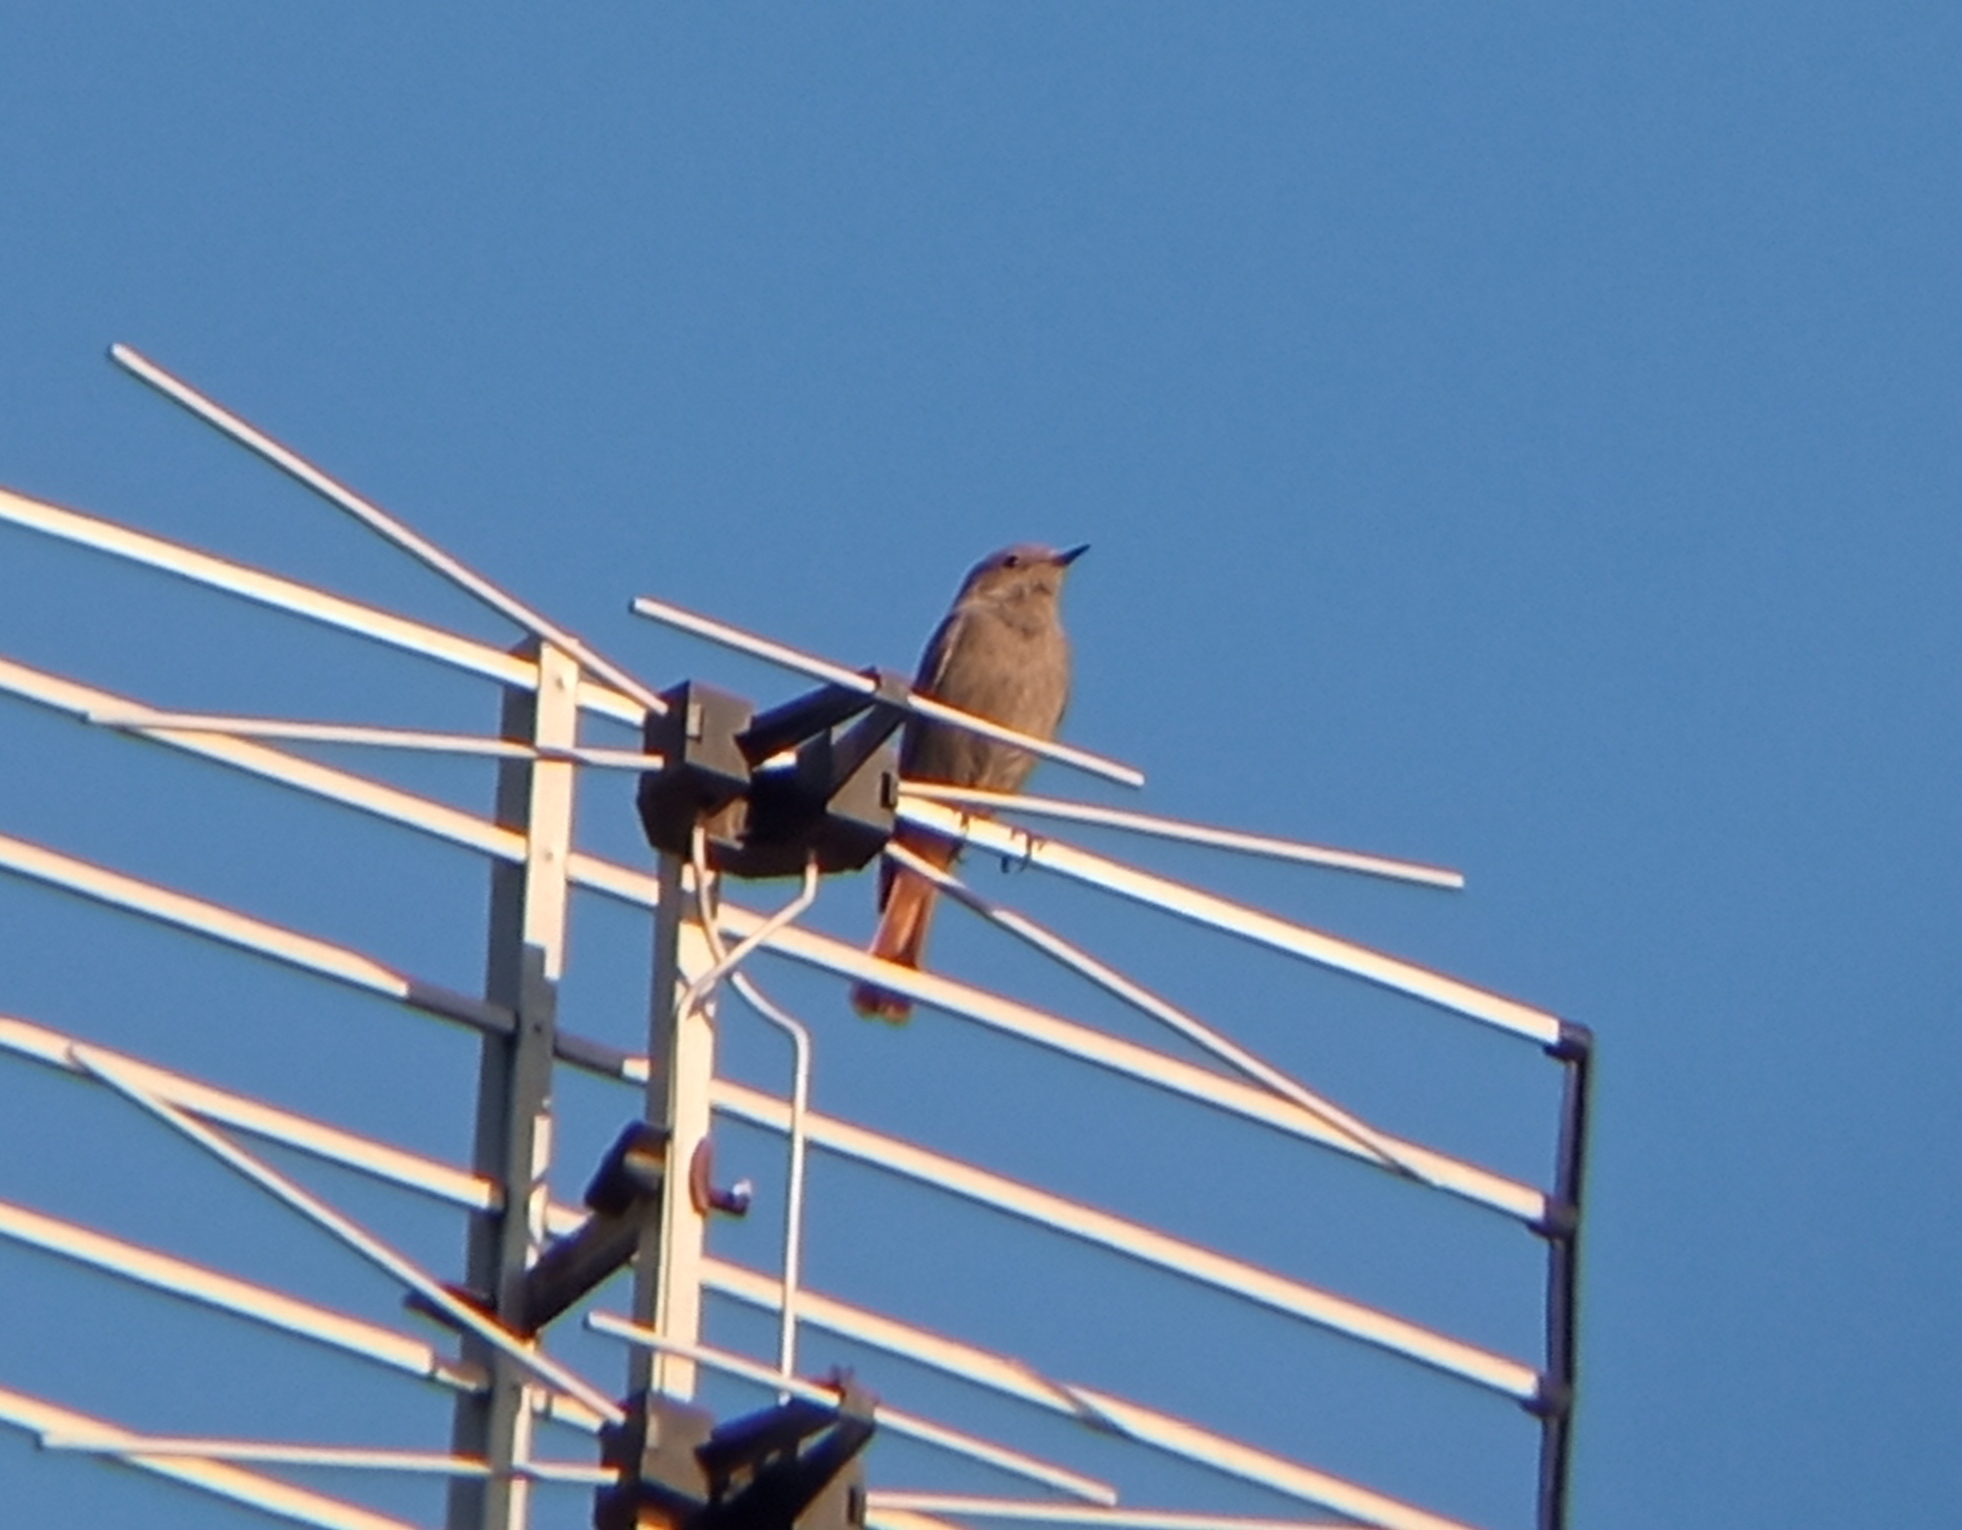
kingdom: Animalia
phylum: Chordata
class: Aves
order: Passeriformes
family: Muscicapidae
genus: Phoenicurus
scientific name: Phoenicurus ochruros
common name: Black redstart
